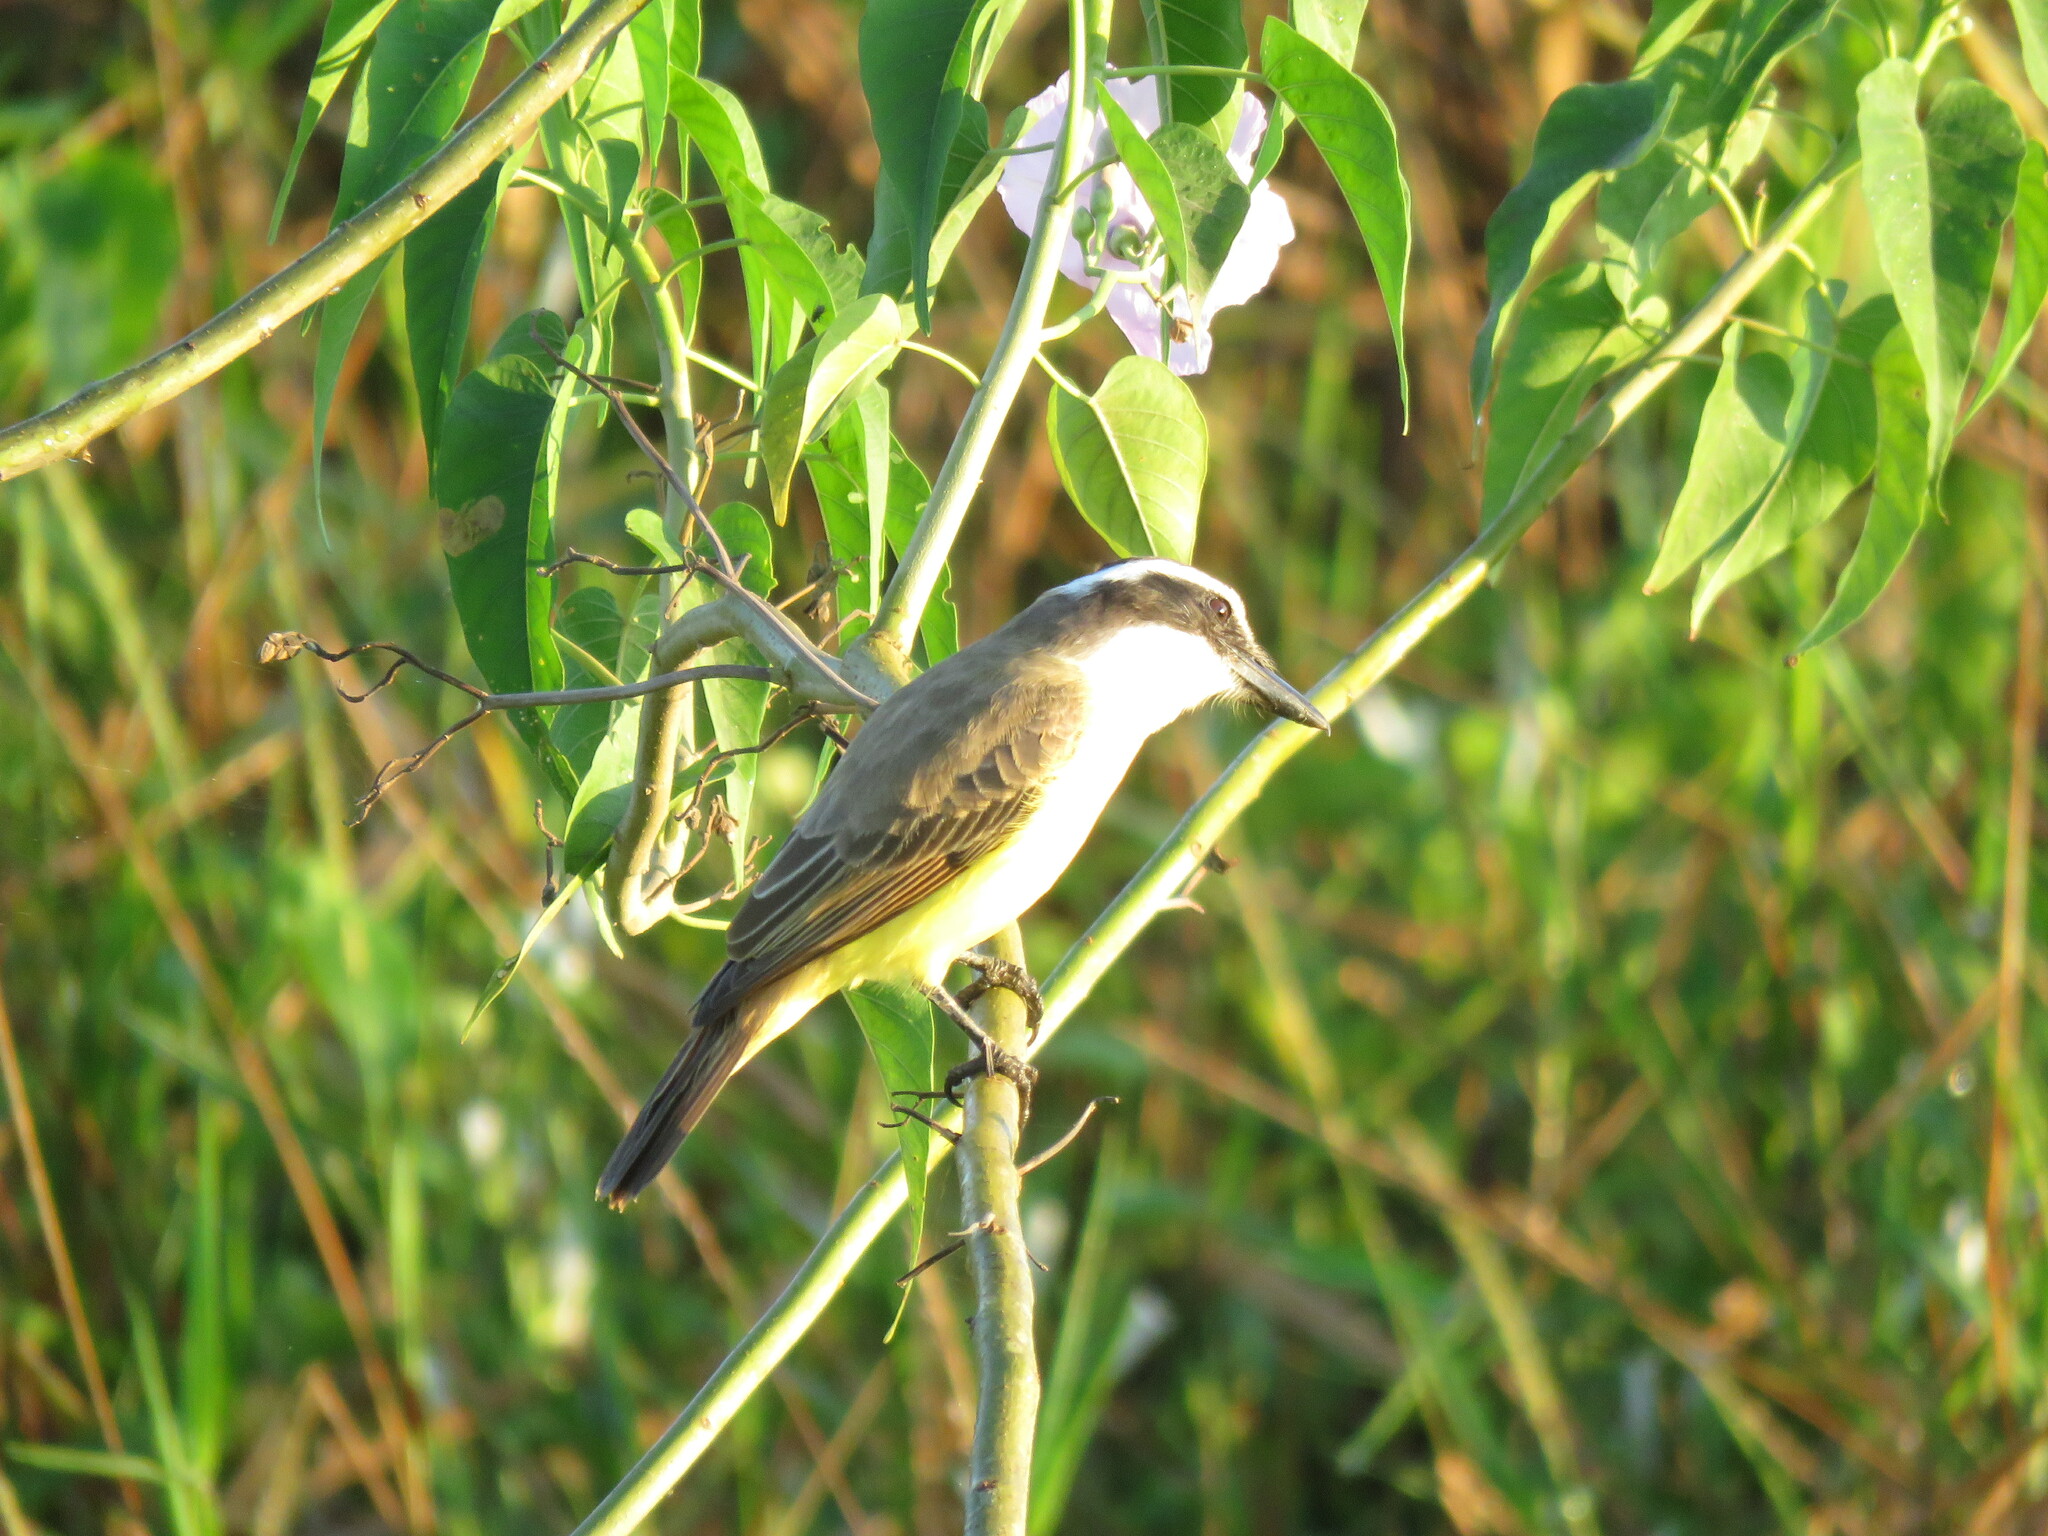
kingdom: Animalia
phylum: Chordata
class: Aves
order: Passeriformes
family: Tyrannidae
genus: Pitangus
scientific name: Pitangus sulphuratus
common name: Great kiskadee
